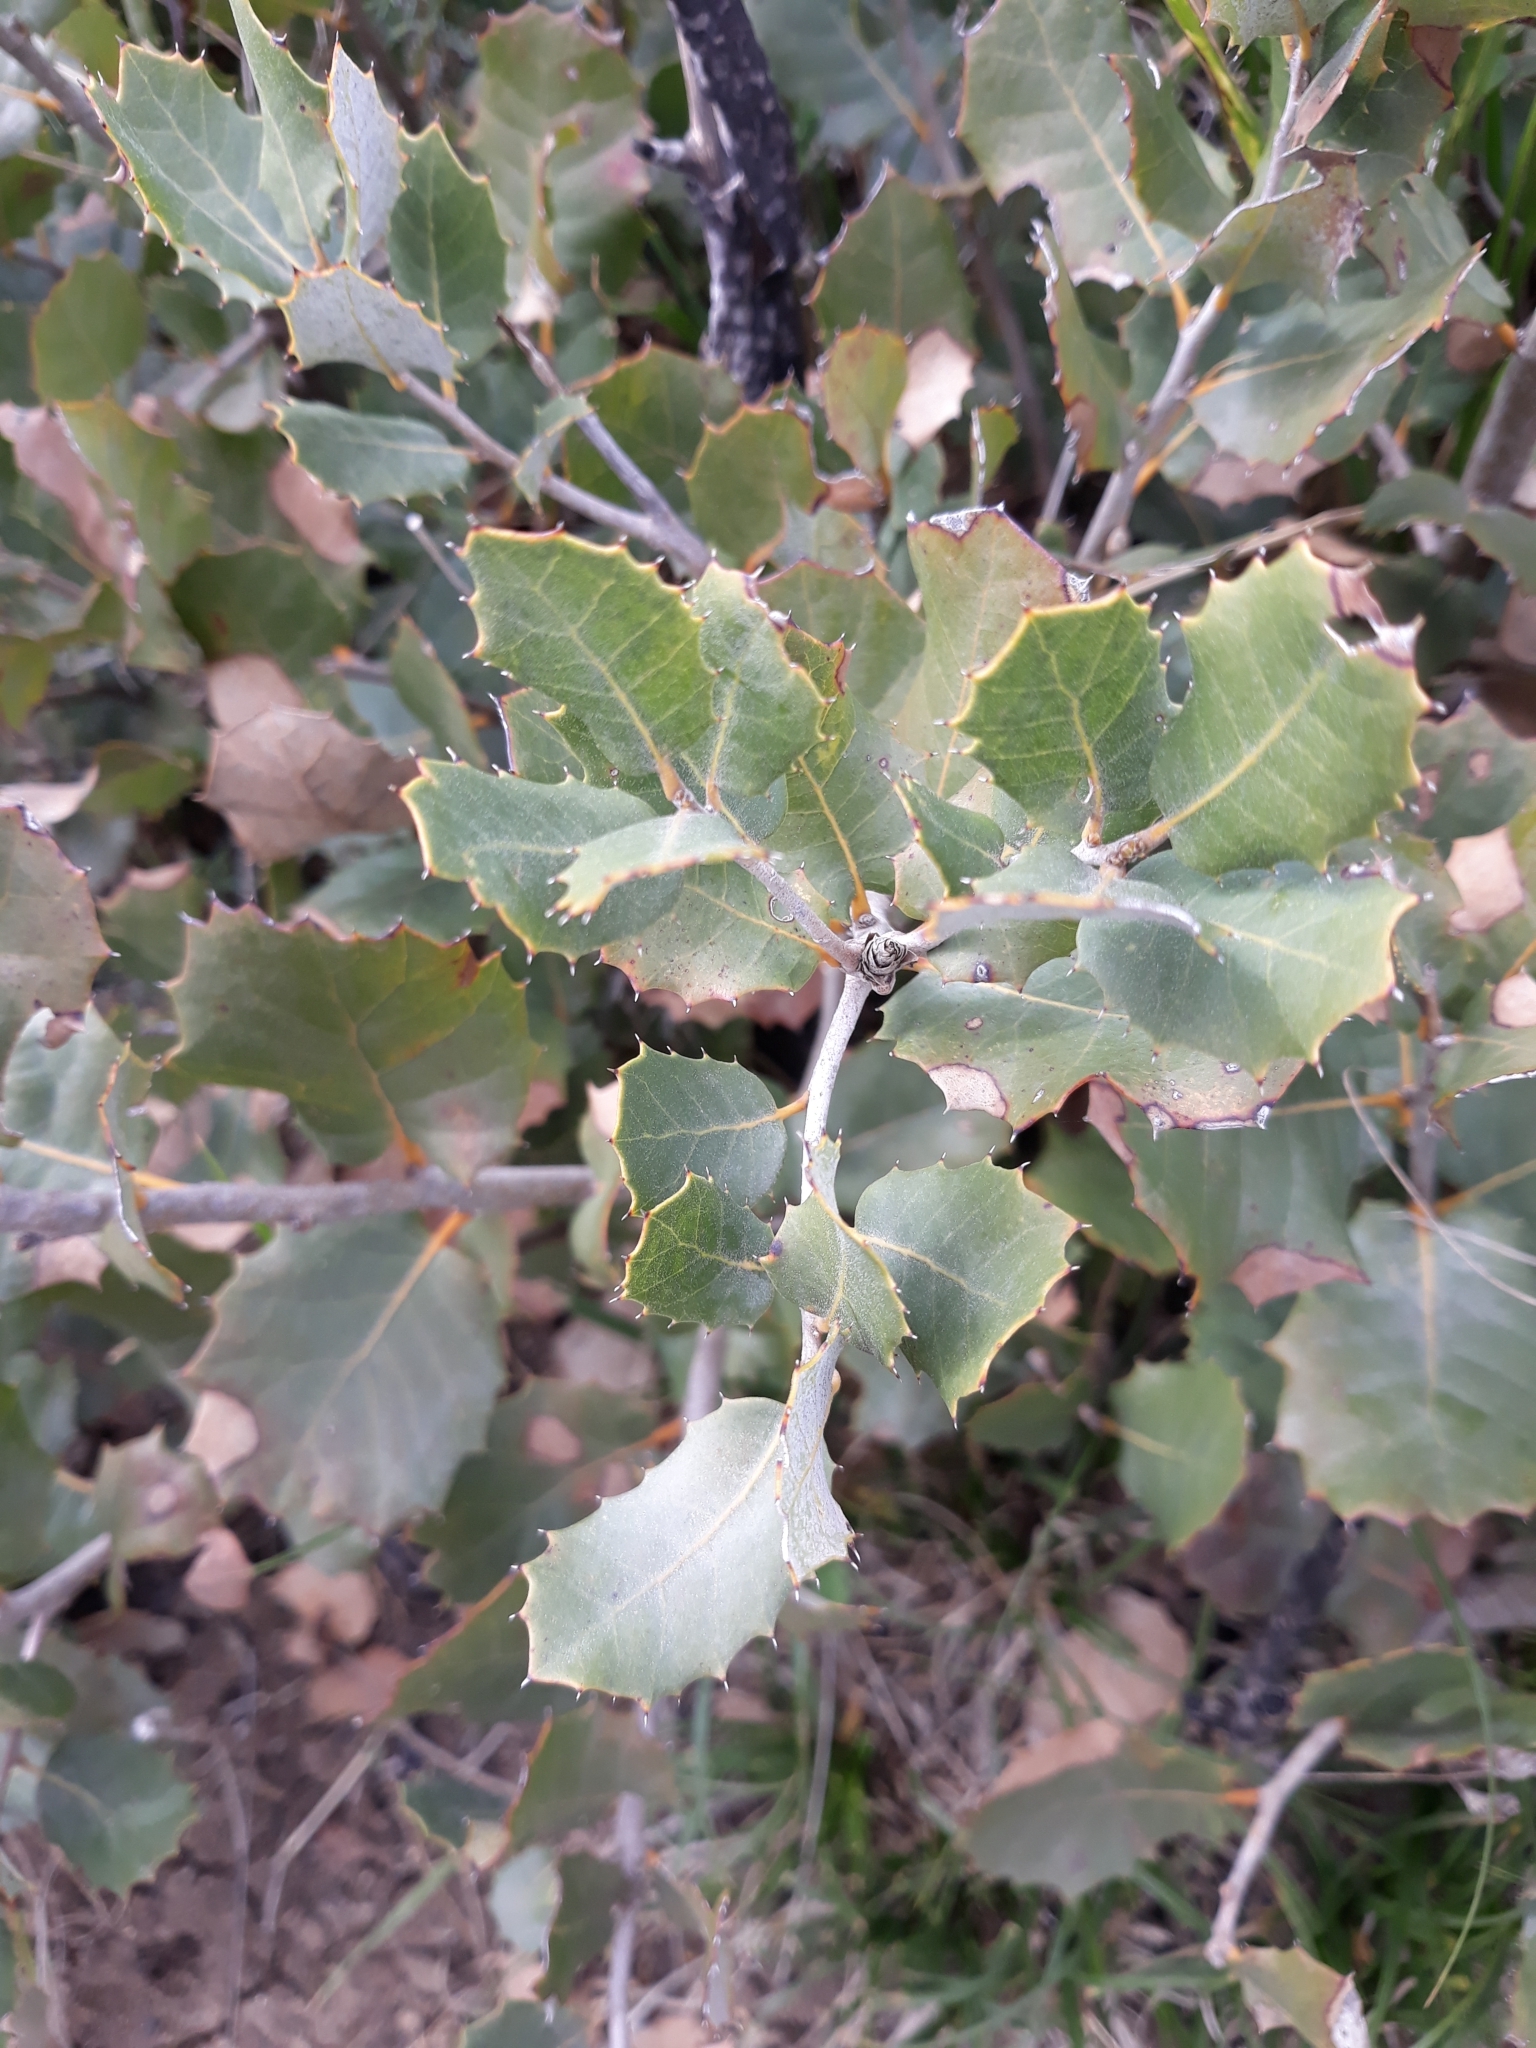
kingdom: Plantae
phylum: Tracheophyta
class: Magnoliopsida
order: Fagales
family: Fagaceae
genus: Quercus
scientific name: Quercus rotundifolia
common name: Holm oak
